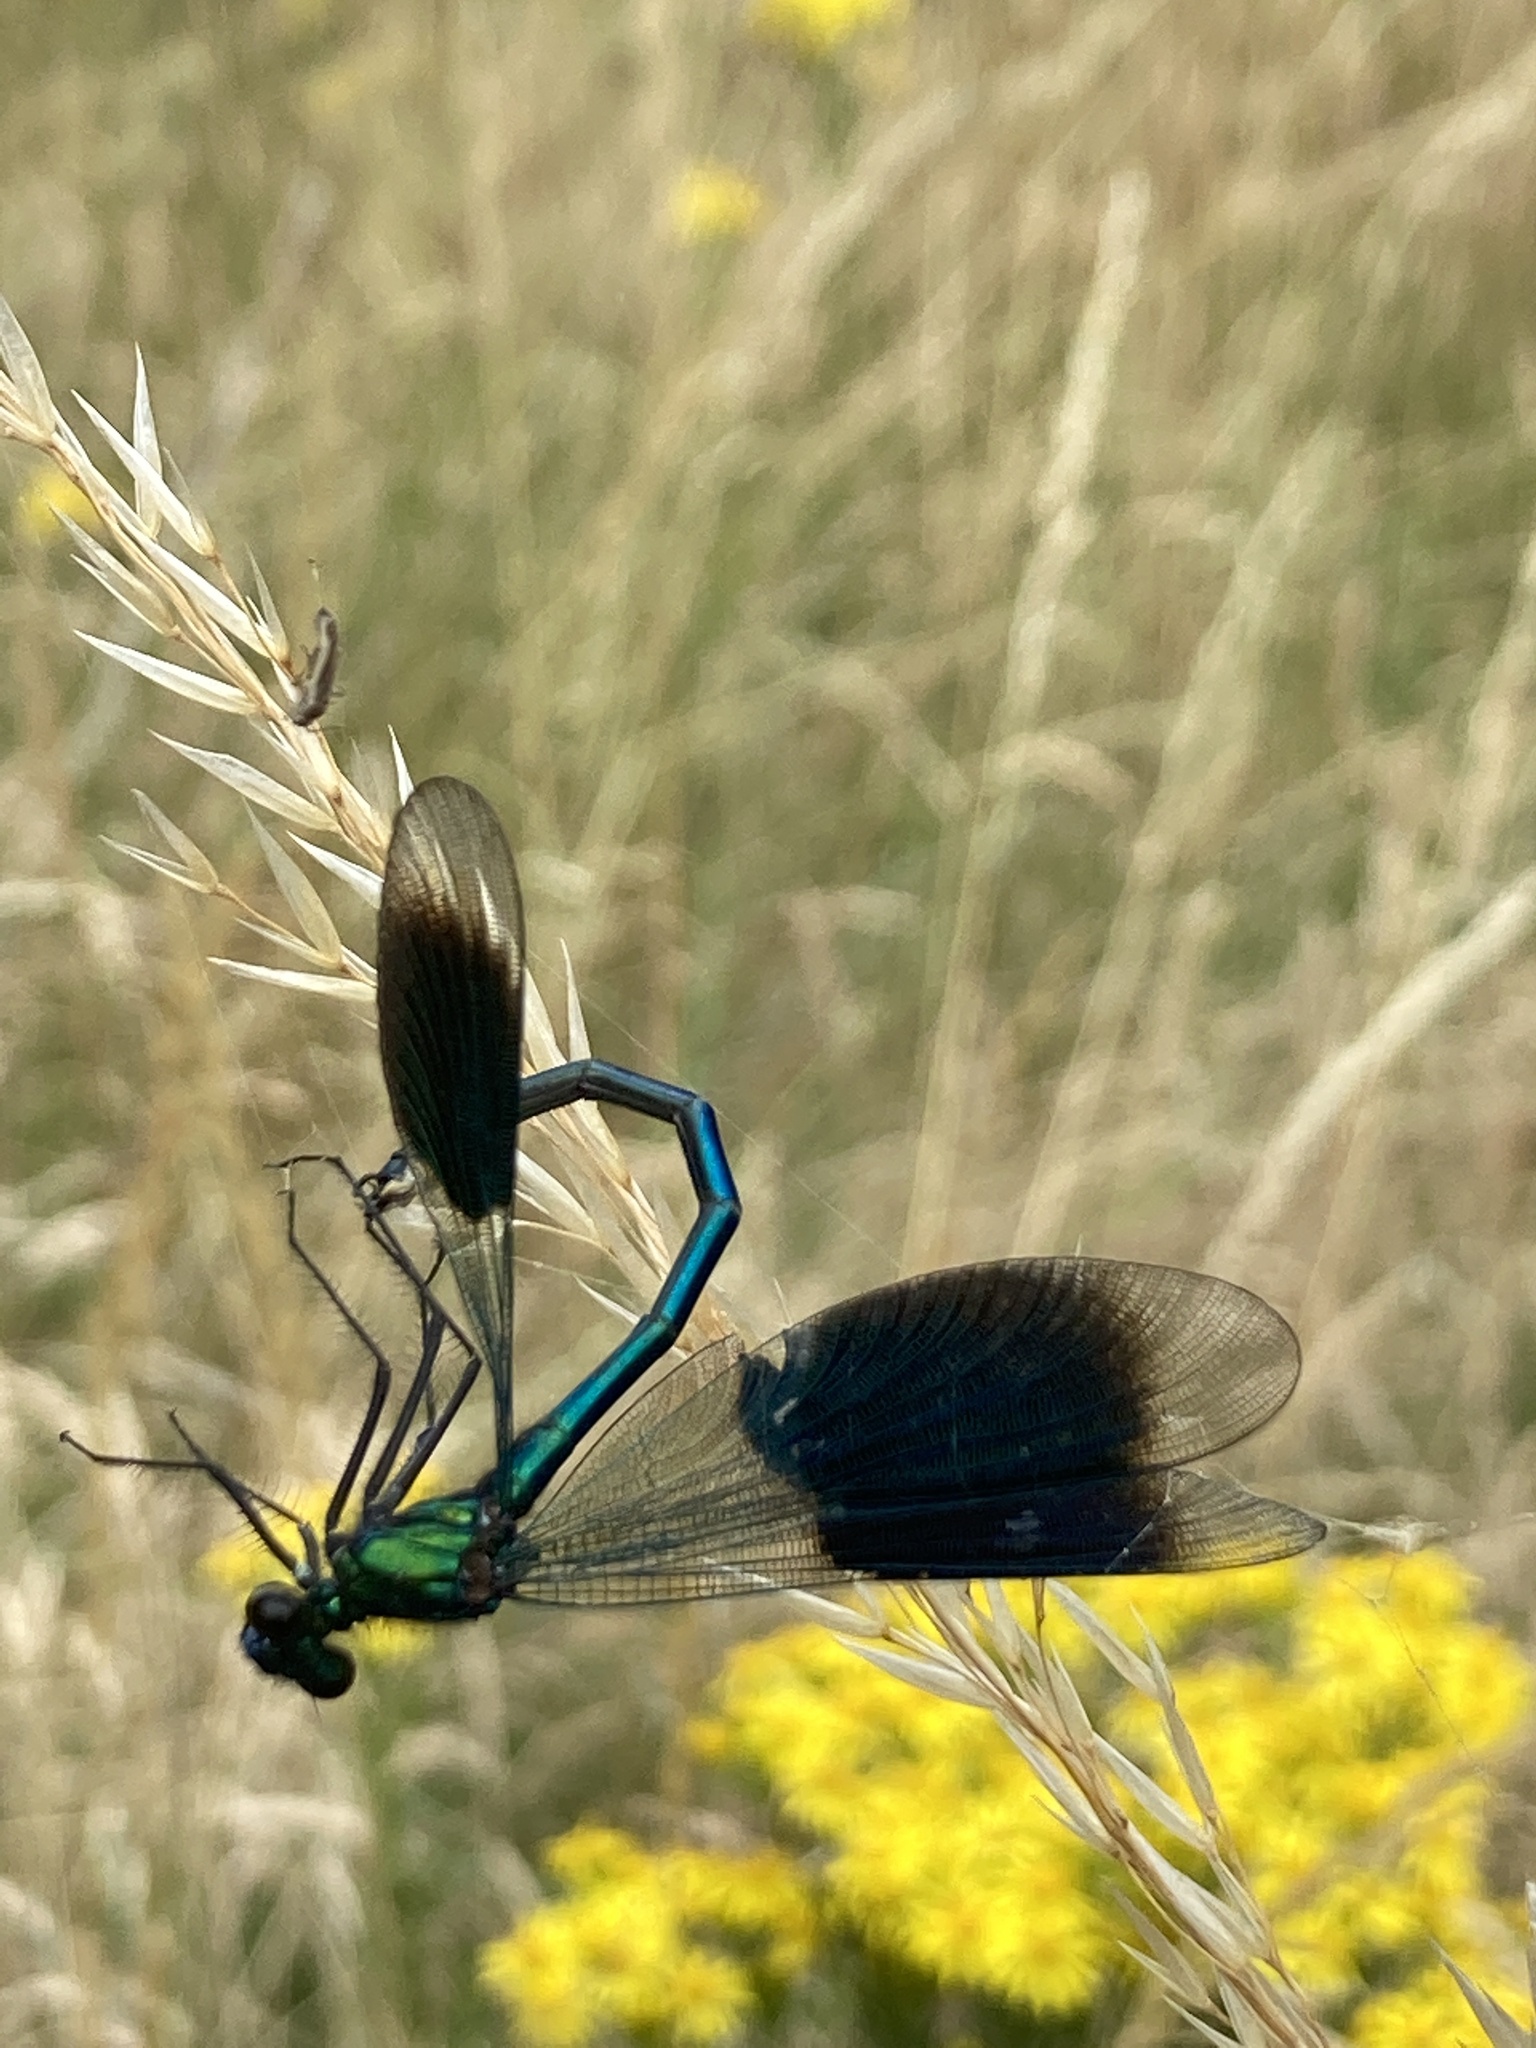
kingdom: Animalia
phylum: Arthropoda
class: Insecta
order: Odonata
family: Calopterygidae
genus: Calopteryx
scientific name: Calopteryx splendens
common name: Banded demoiselle
